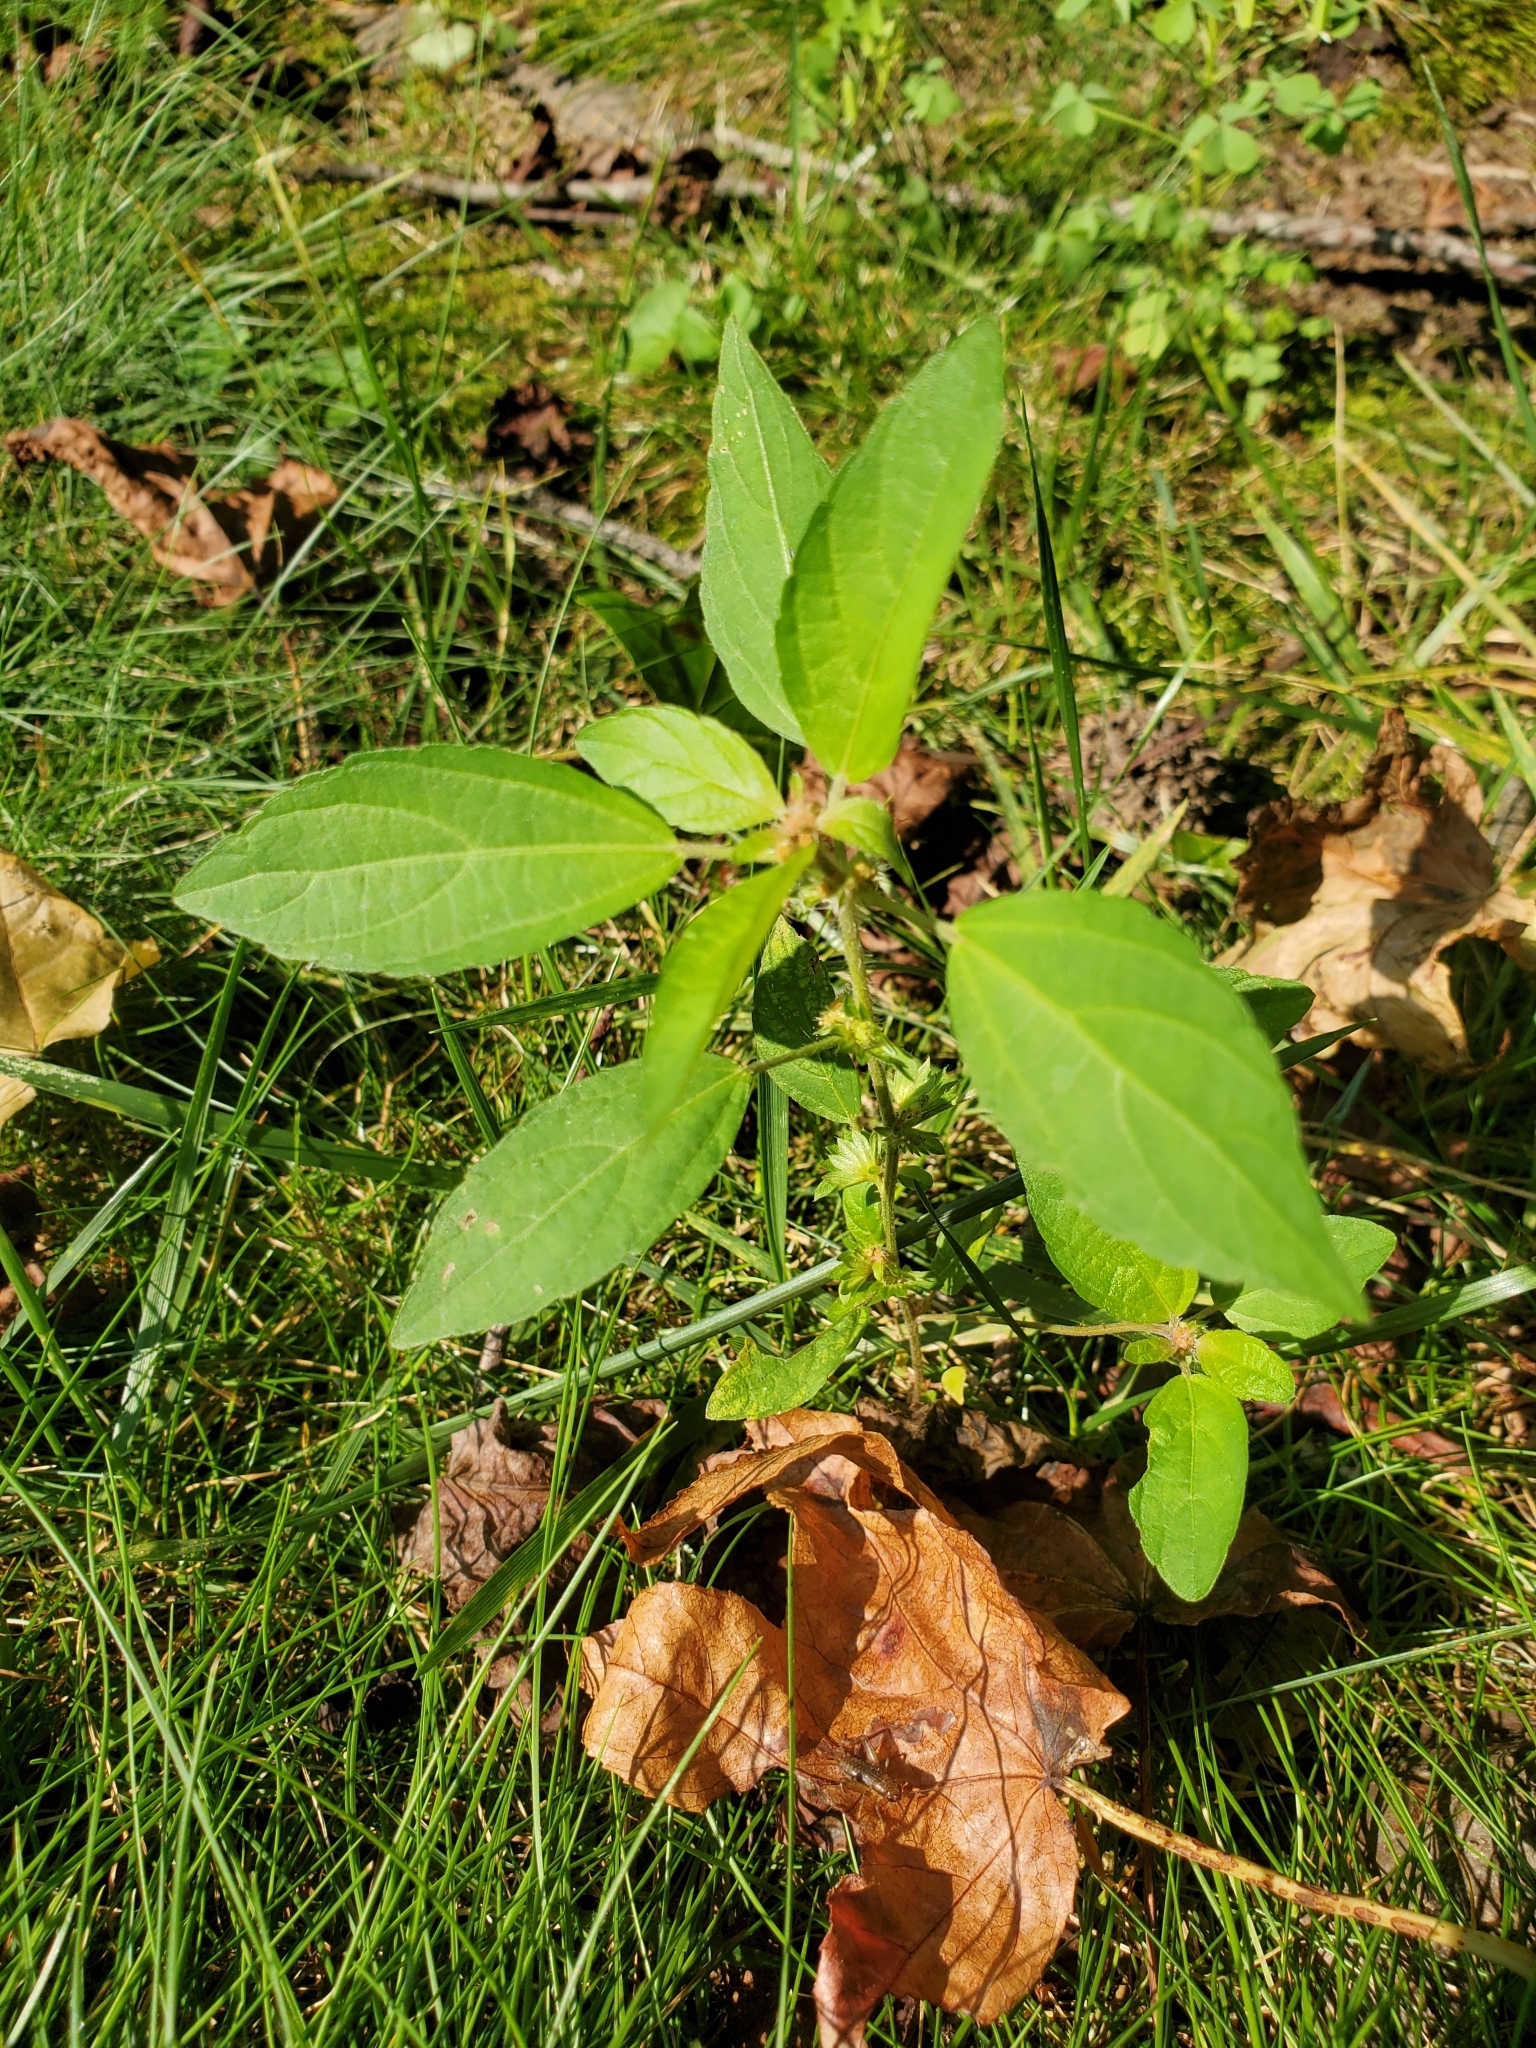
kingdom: Plantae
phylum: Tracheophyta
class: Magnoliopsida
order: Malpighiales
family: Euphorbiaceae
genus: Acalypha
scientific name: Acalypha virginica
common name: Virginia copperleaf
